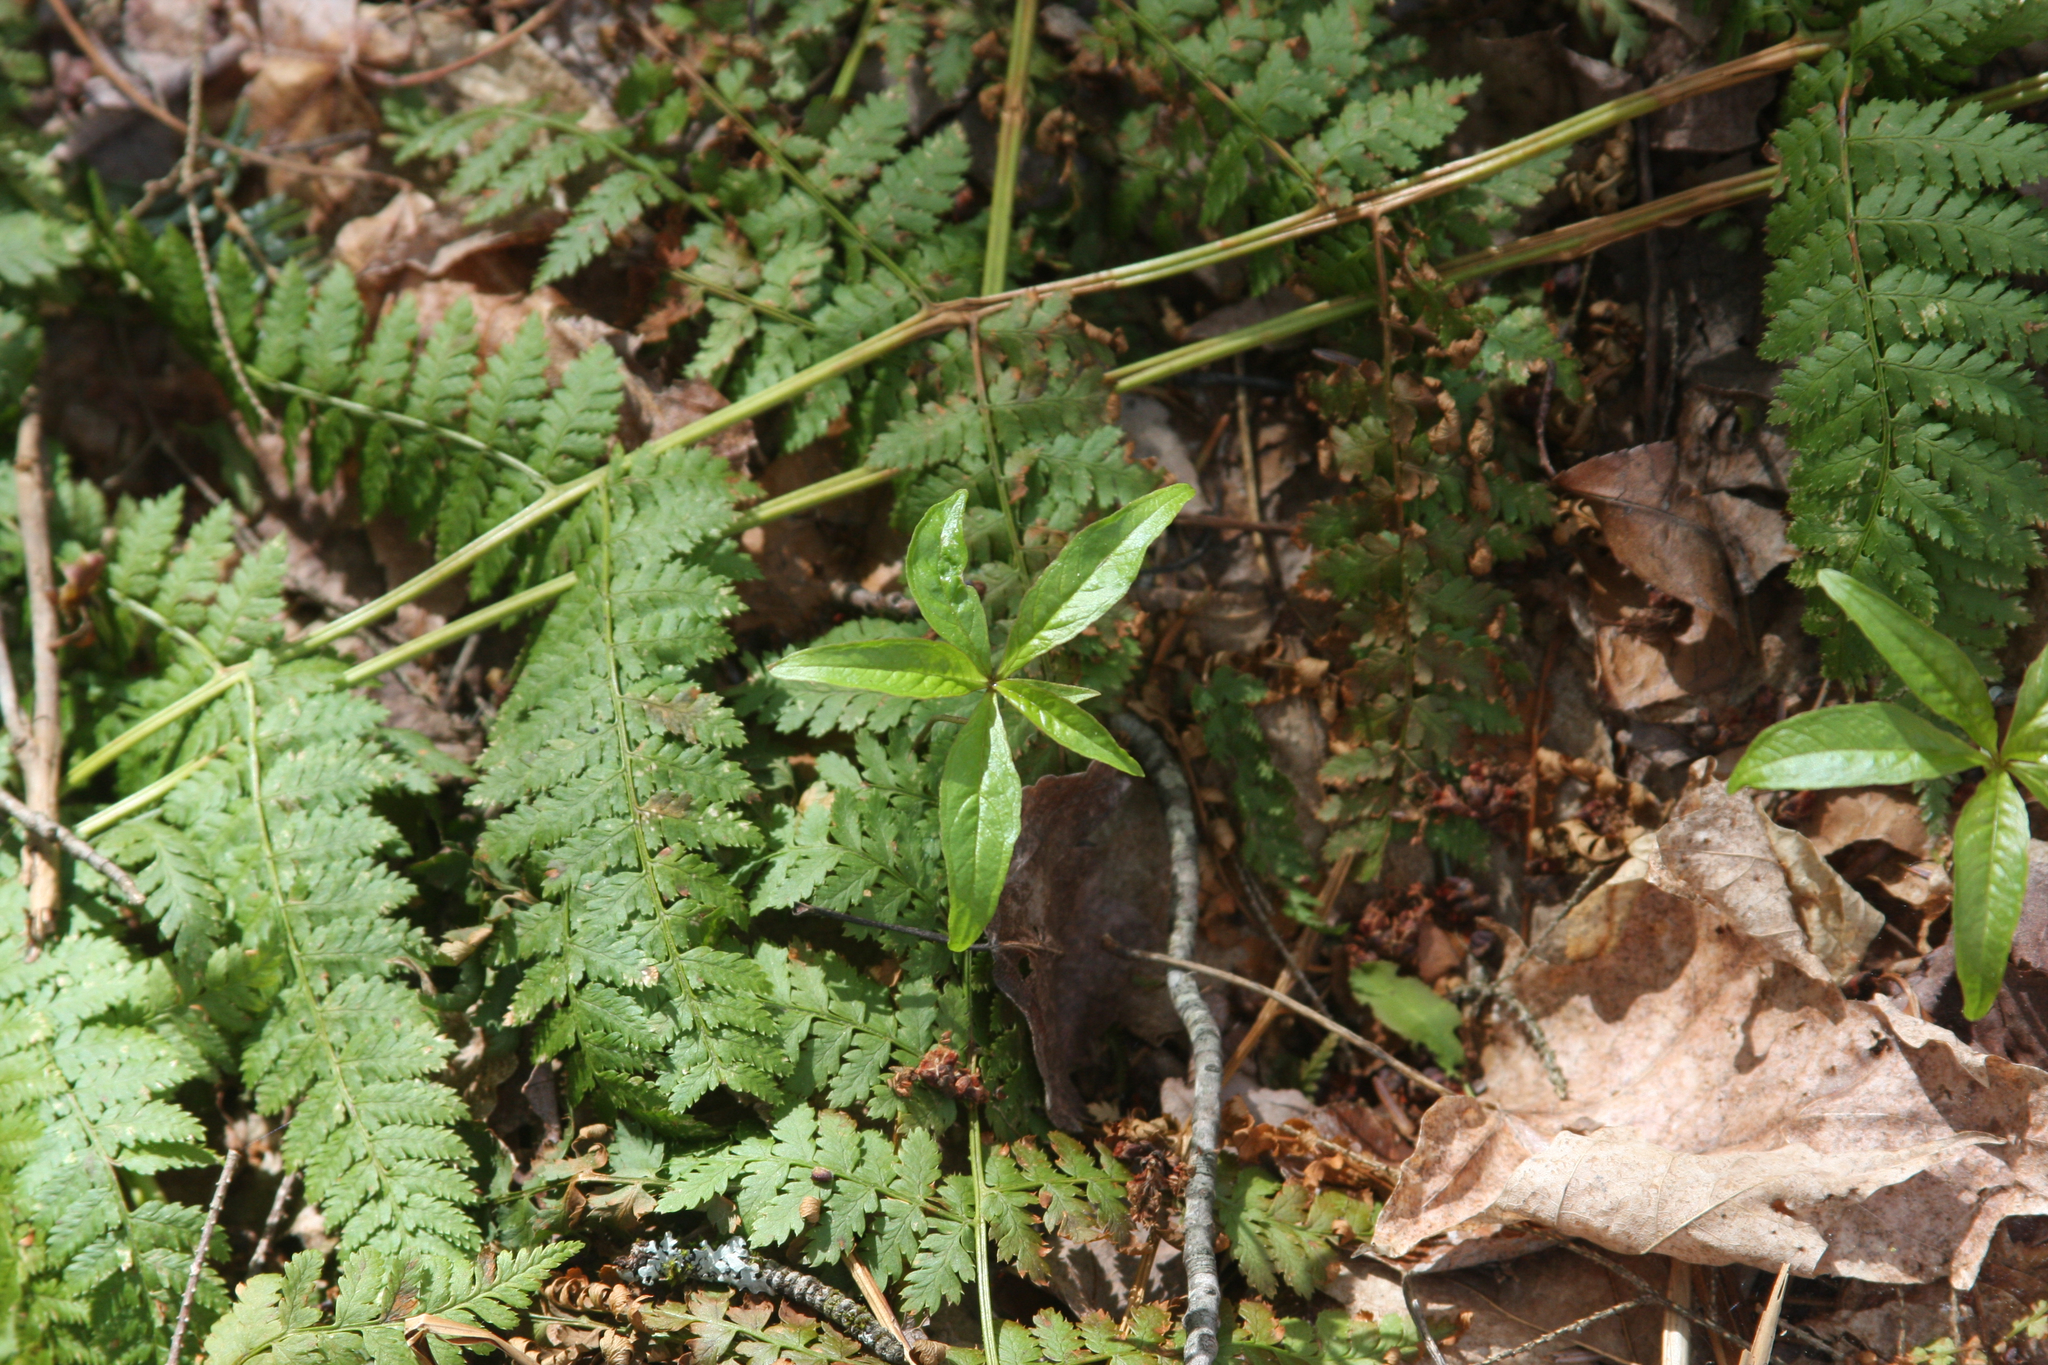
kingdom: Plantae
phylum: Tracheophyta
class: Polypodiopsida
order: Polypodiales
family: Dryopteridaceae
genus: Dryopteris
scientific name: Dryopteris intermedia
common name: Evergreen wood fern
